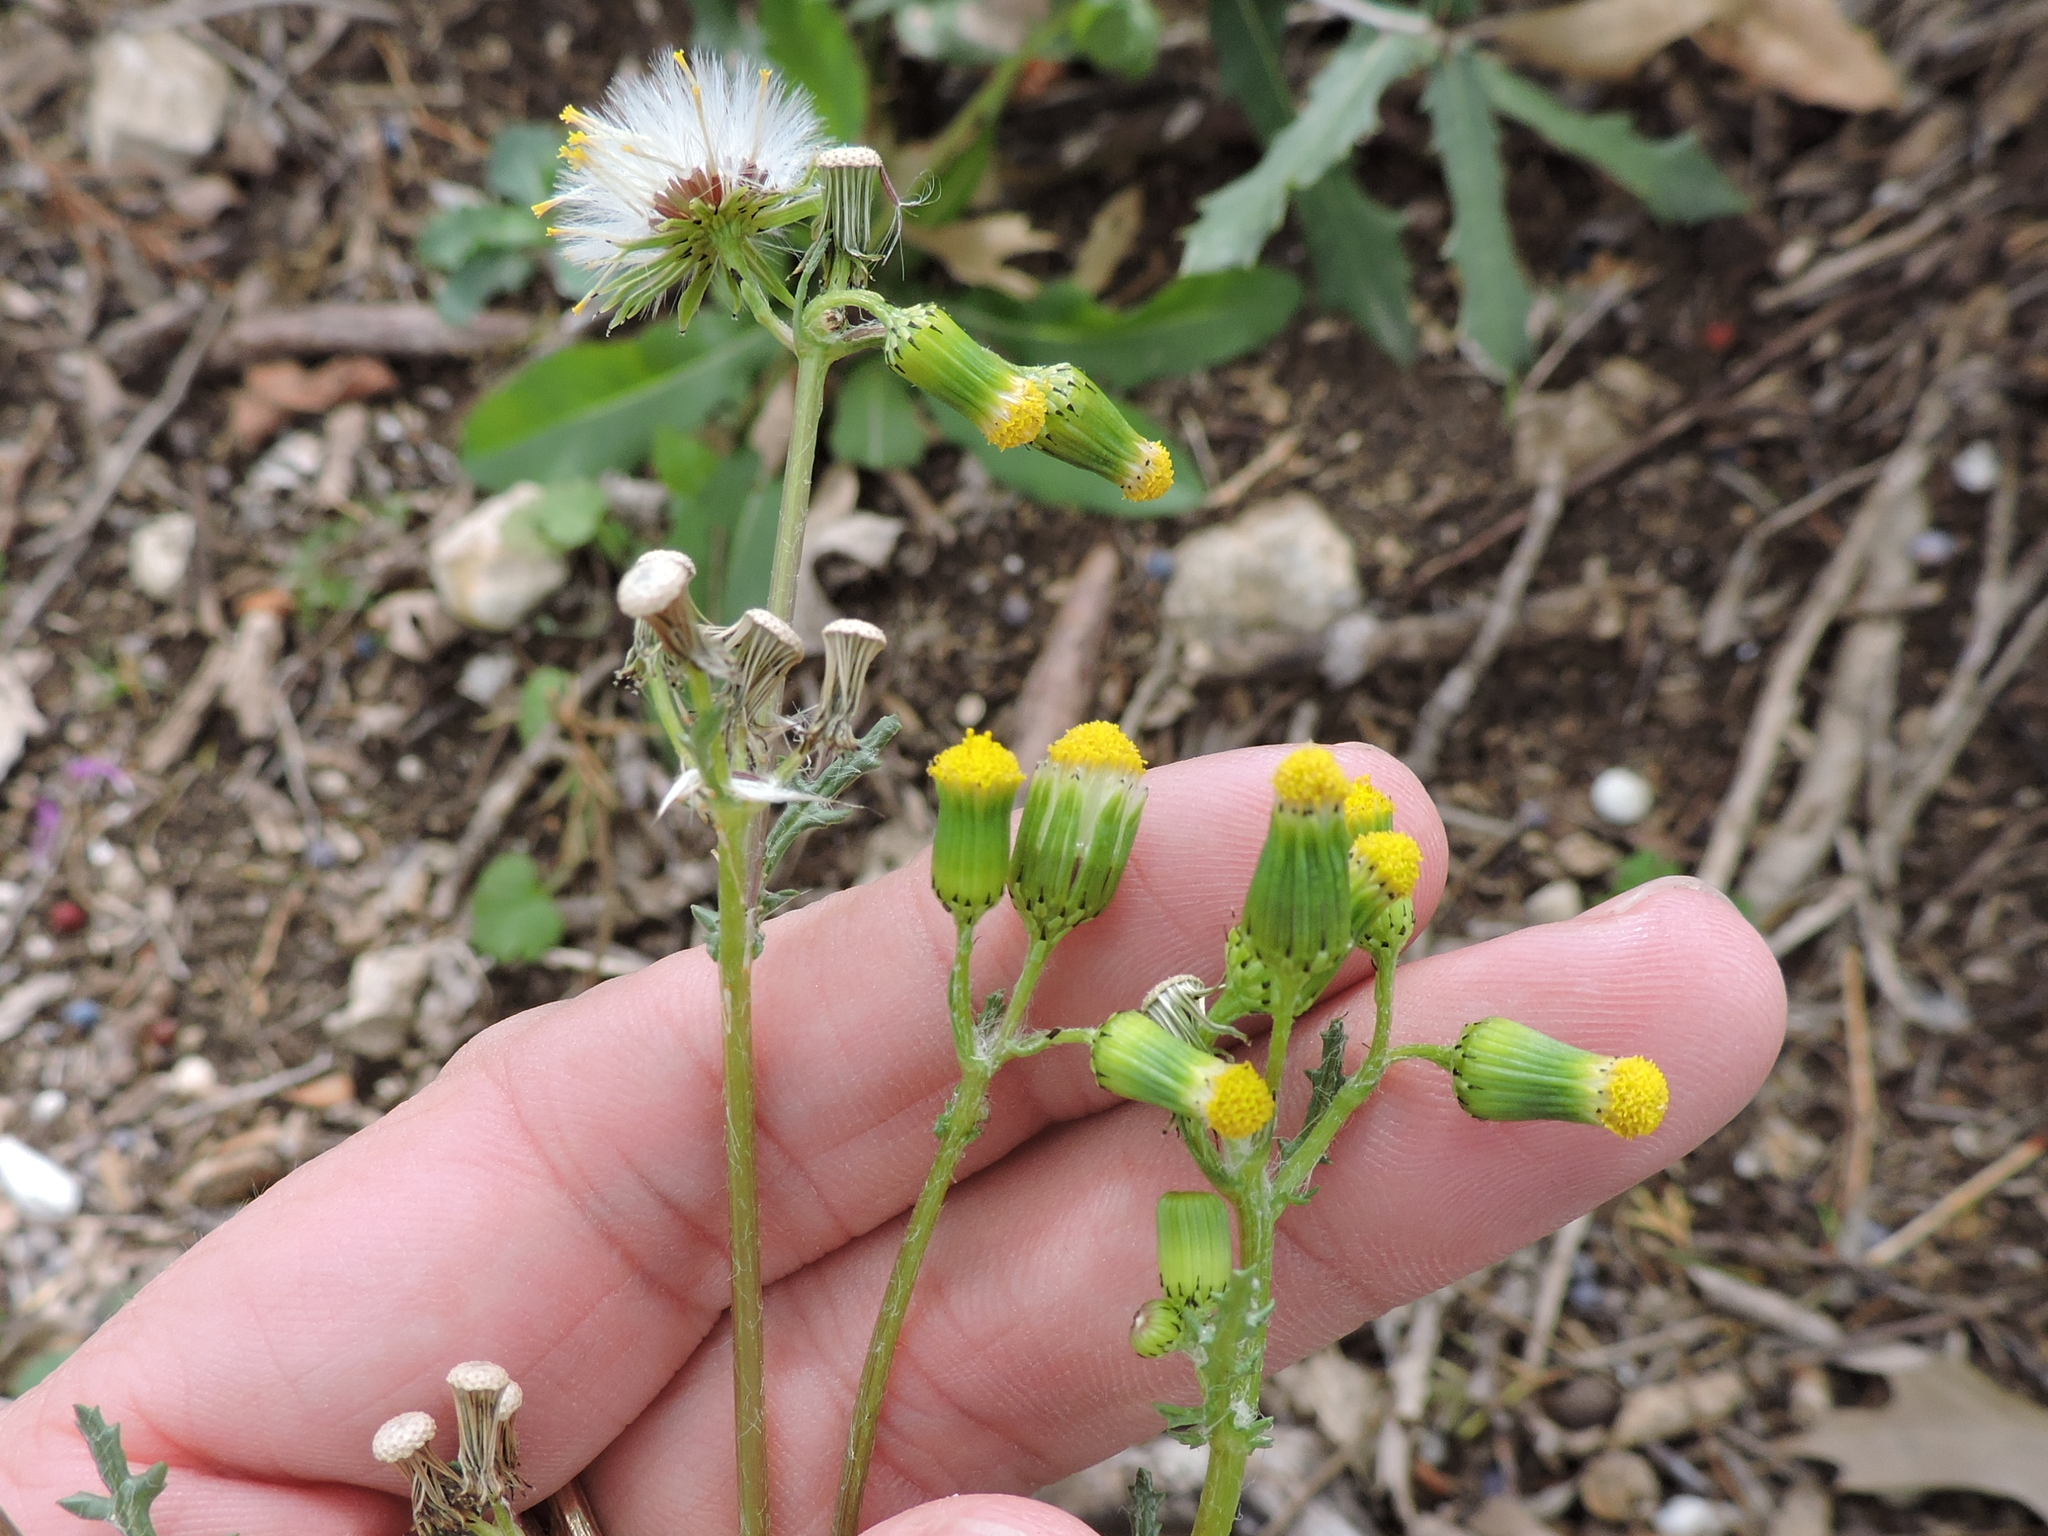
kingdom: Plantae
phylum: Tracheophyta
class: Magnoliopsida
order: Asterales
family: Asteraceae
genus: Senecio
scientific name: Senecio vulgaris
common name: Old-man-in-the-spring
